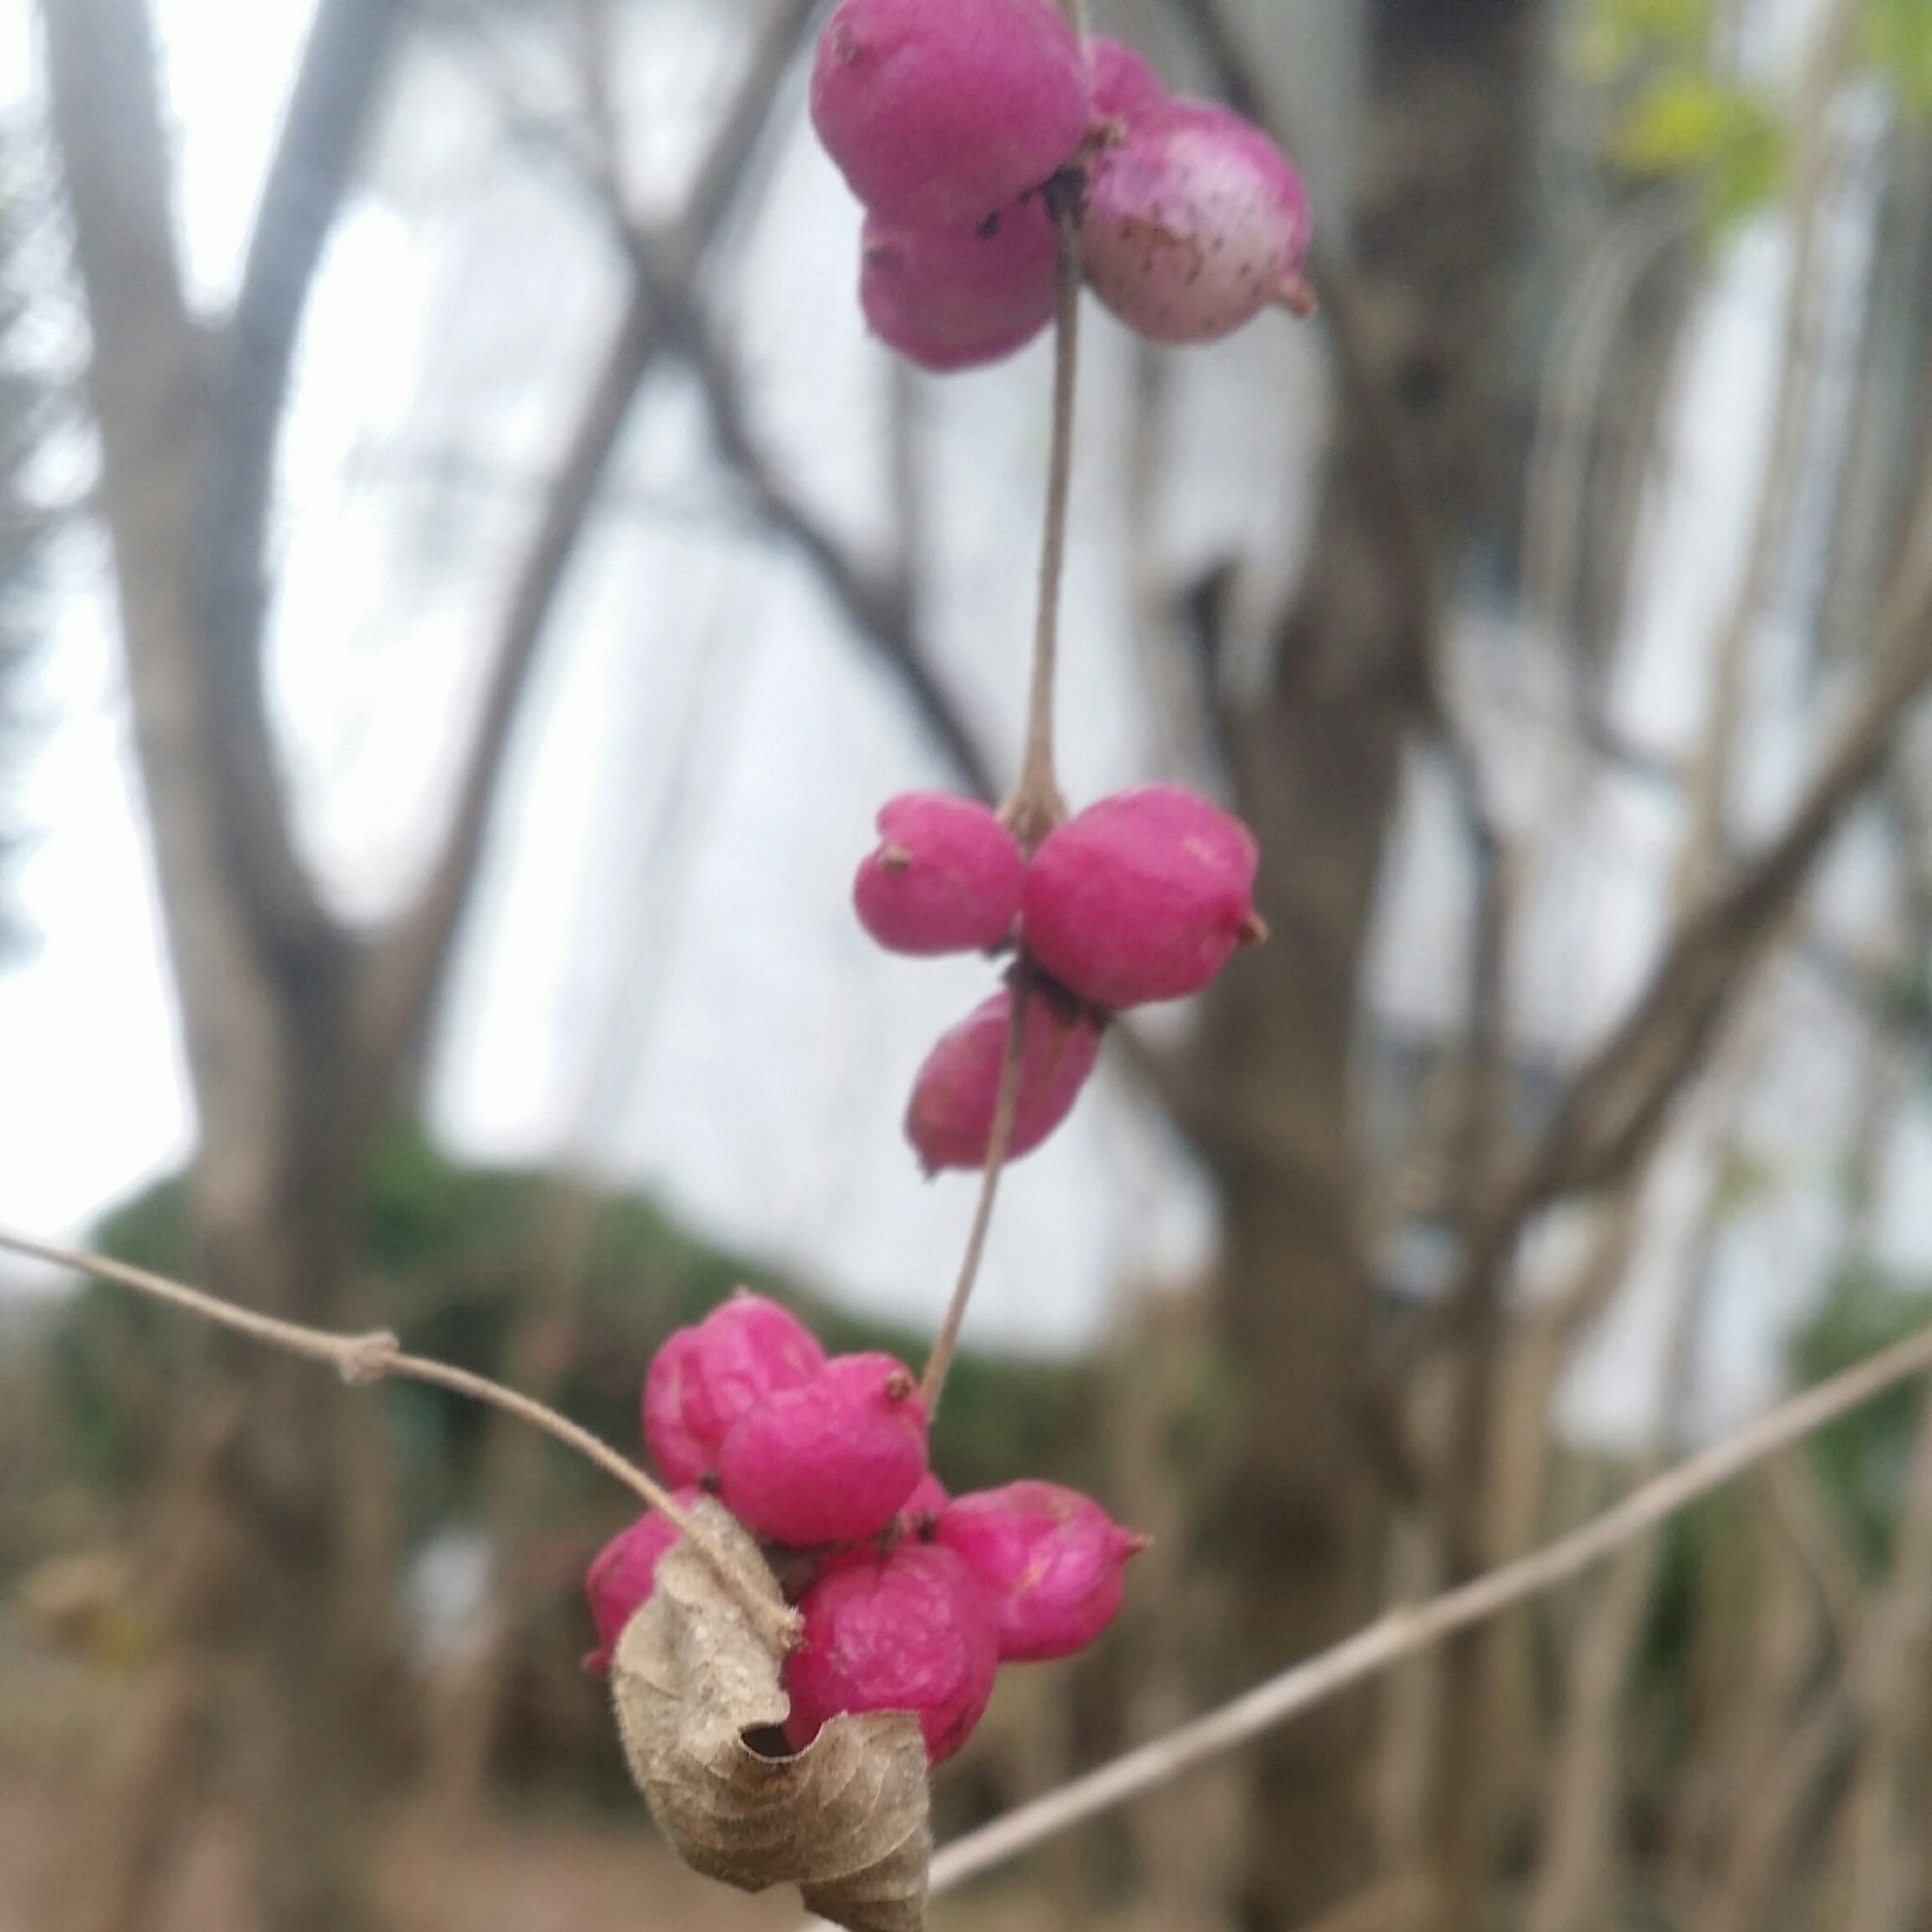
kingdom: Plantae
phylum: Tracheophyta
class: Magnoliopsida
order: Dipsacales
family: Caprifoliaceae
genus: Symphoricarpos
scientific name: Symphoricarpos orbiculatus
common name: Coralberry
